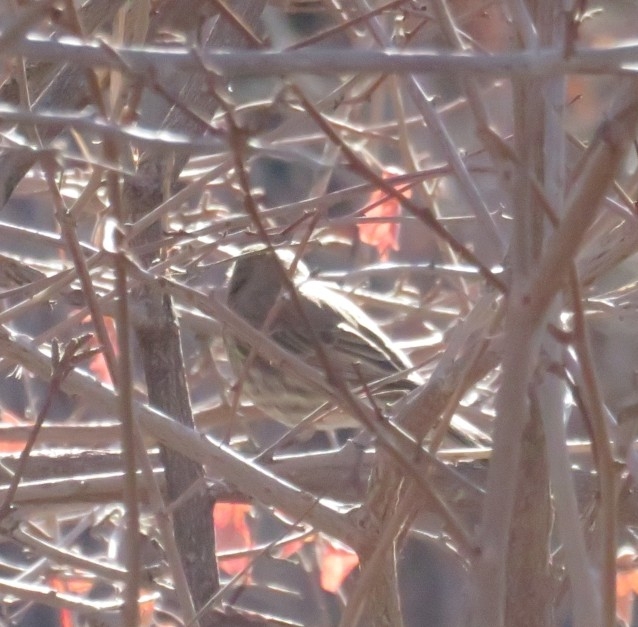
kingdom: Animalia
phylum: Chordata
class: Aves
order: Passeriformes
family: Fringillidae
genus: Haemorhous
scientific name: Haemorhous mexicanus
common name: House finch
